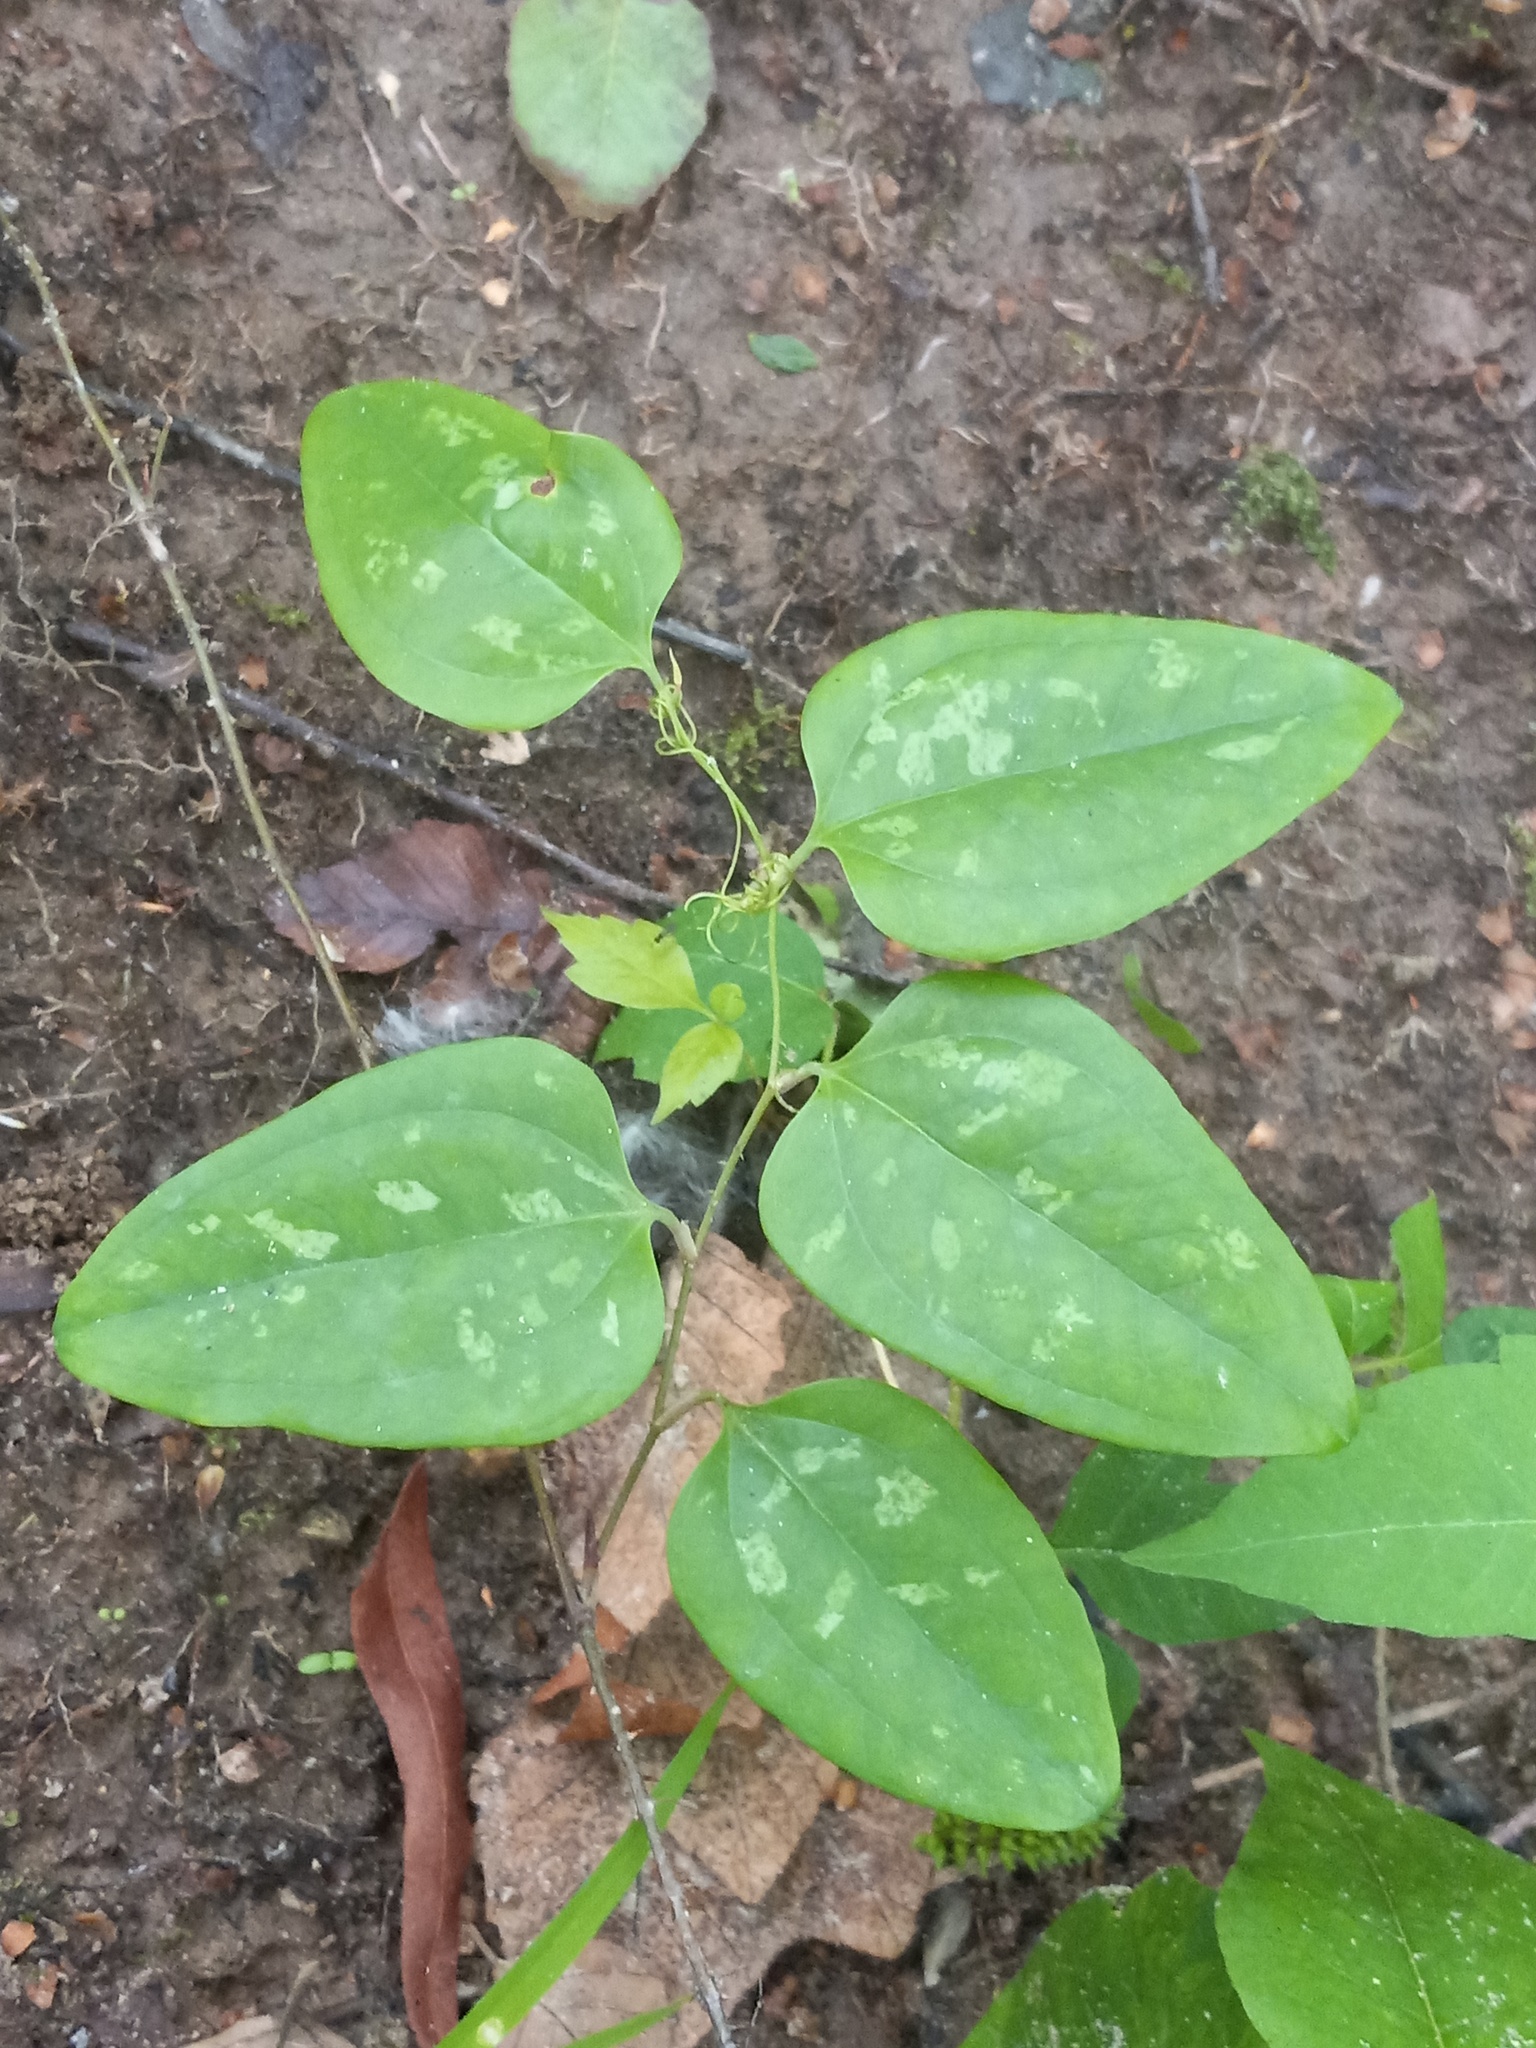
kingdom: Plantae
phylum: Tracheophyta
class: Liliopsida
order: Liliales
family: Smilacaceae
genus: Smilax
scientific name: Smilax glauca
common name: Cat greenbrier
